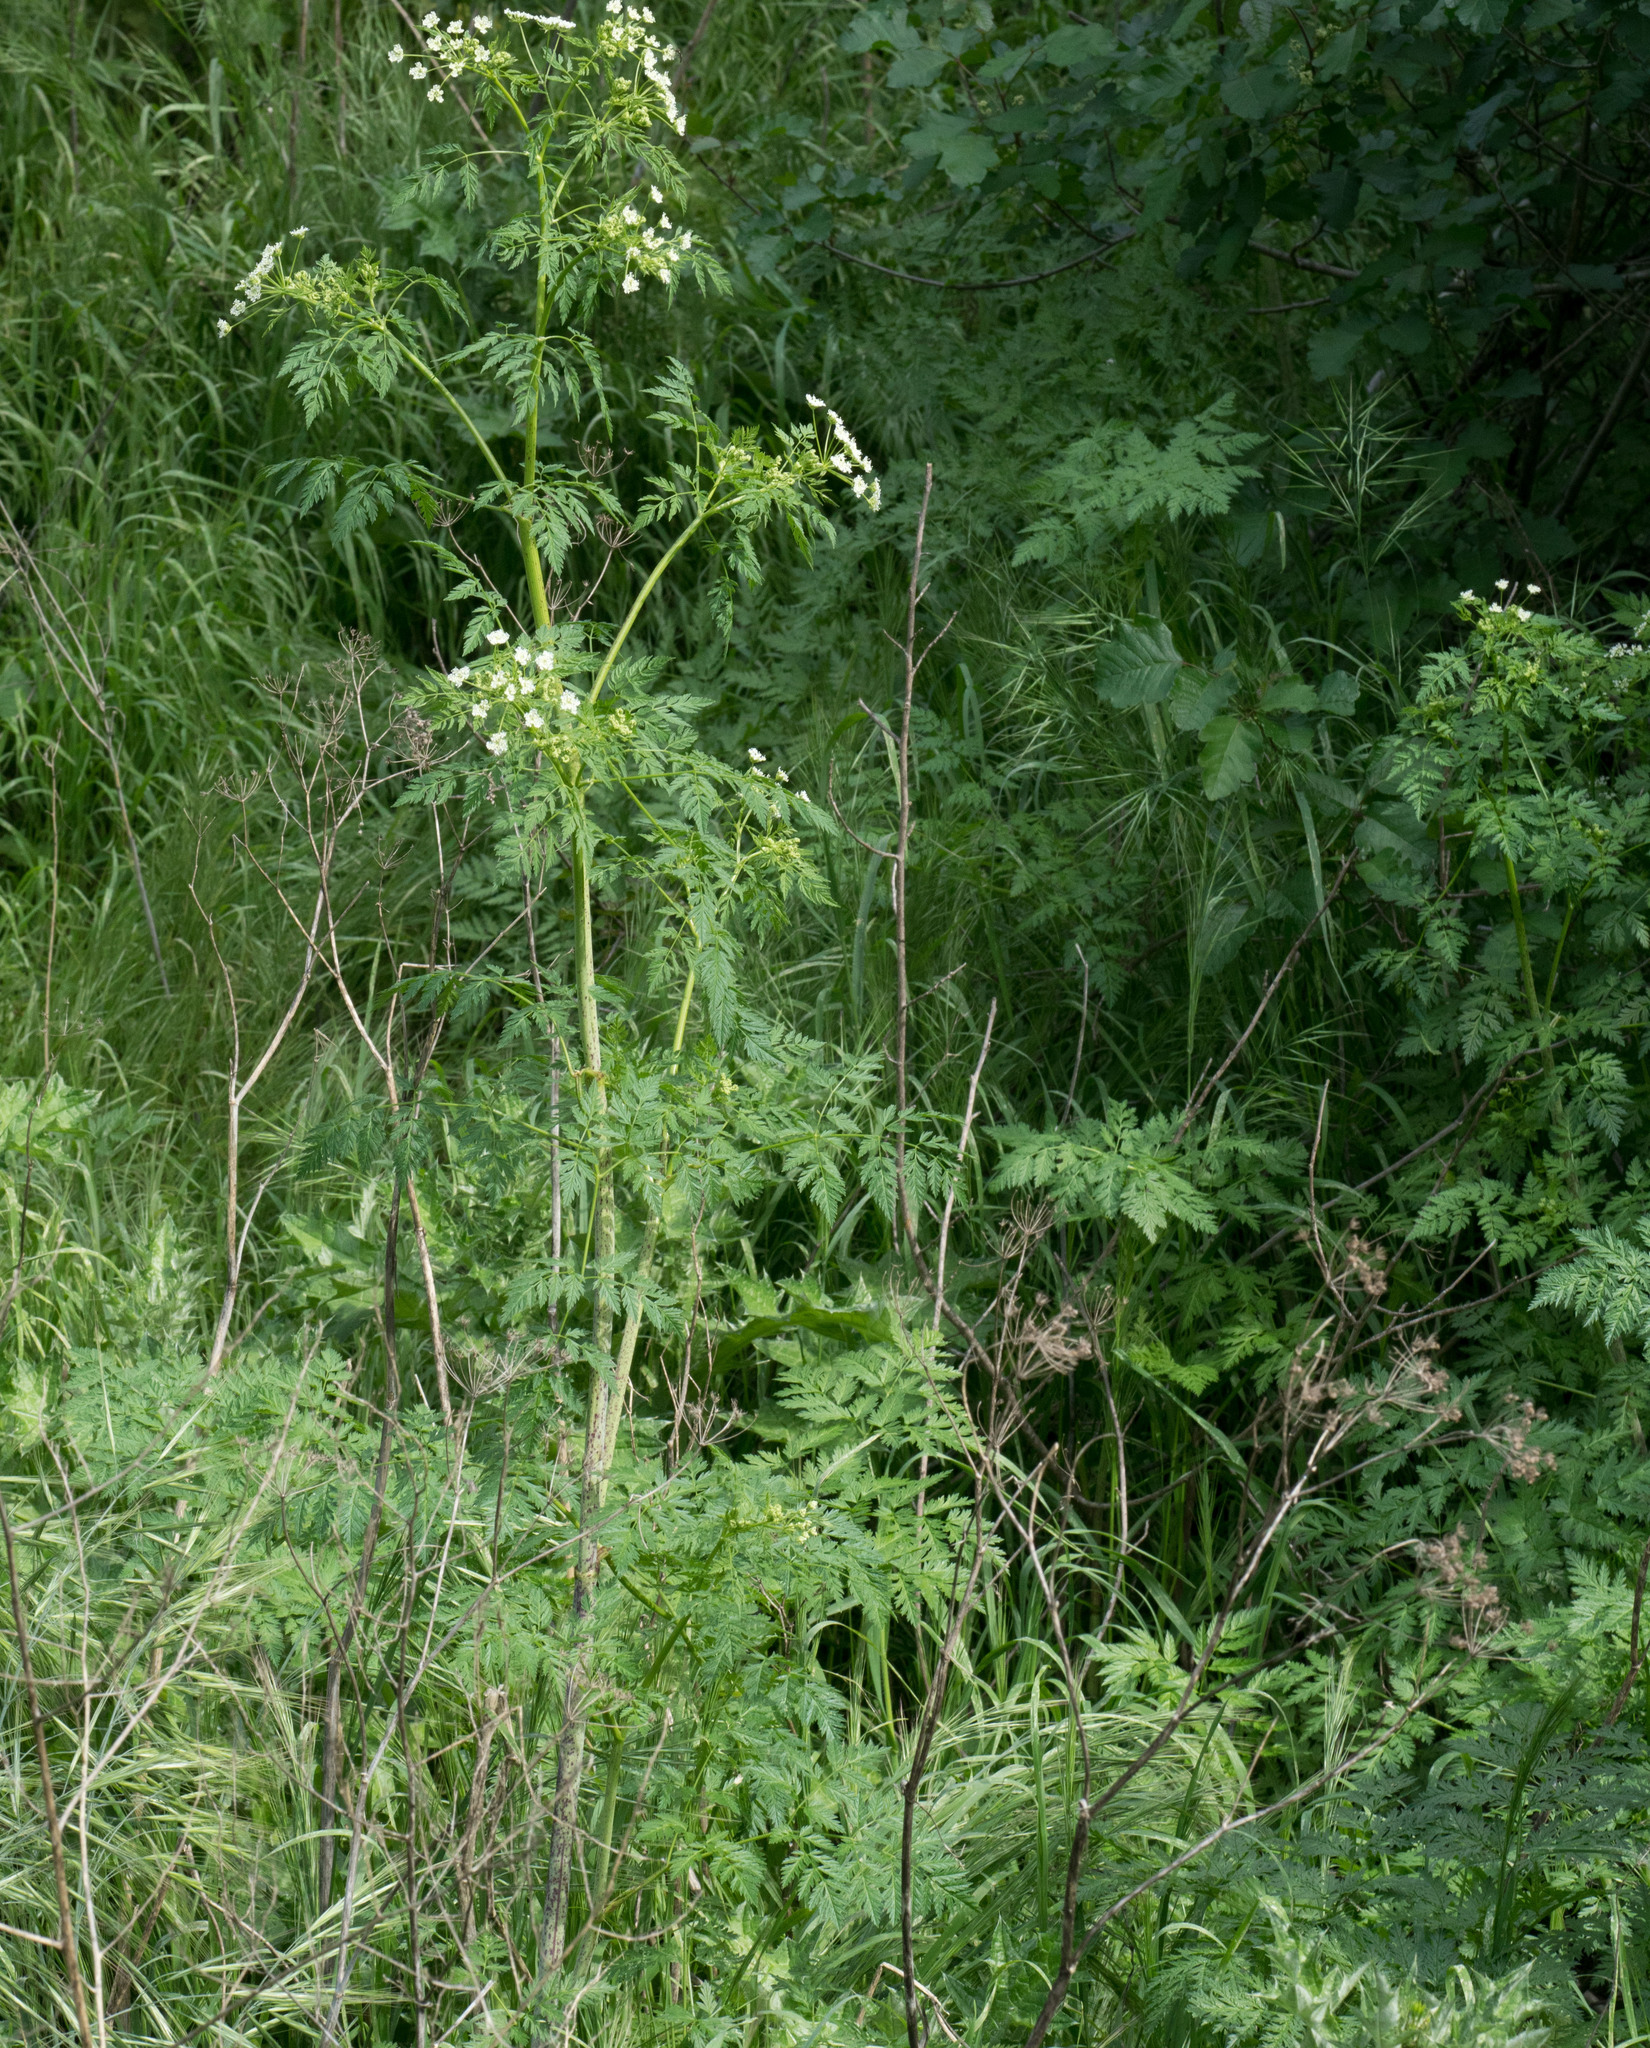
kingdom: Plantae
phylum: Tracheophyta
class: Magnoliopsida
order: Apiales
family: Apiaceae
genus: Conium
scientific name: Conium maculatum
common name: Hemlock
